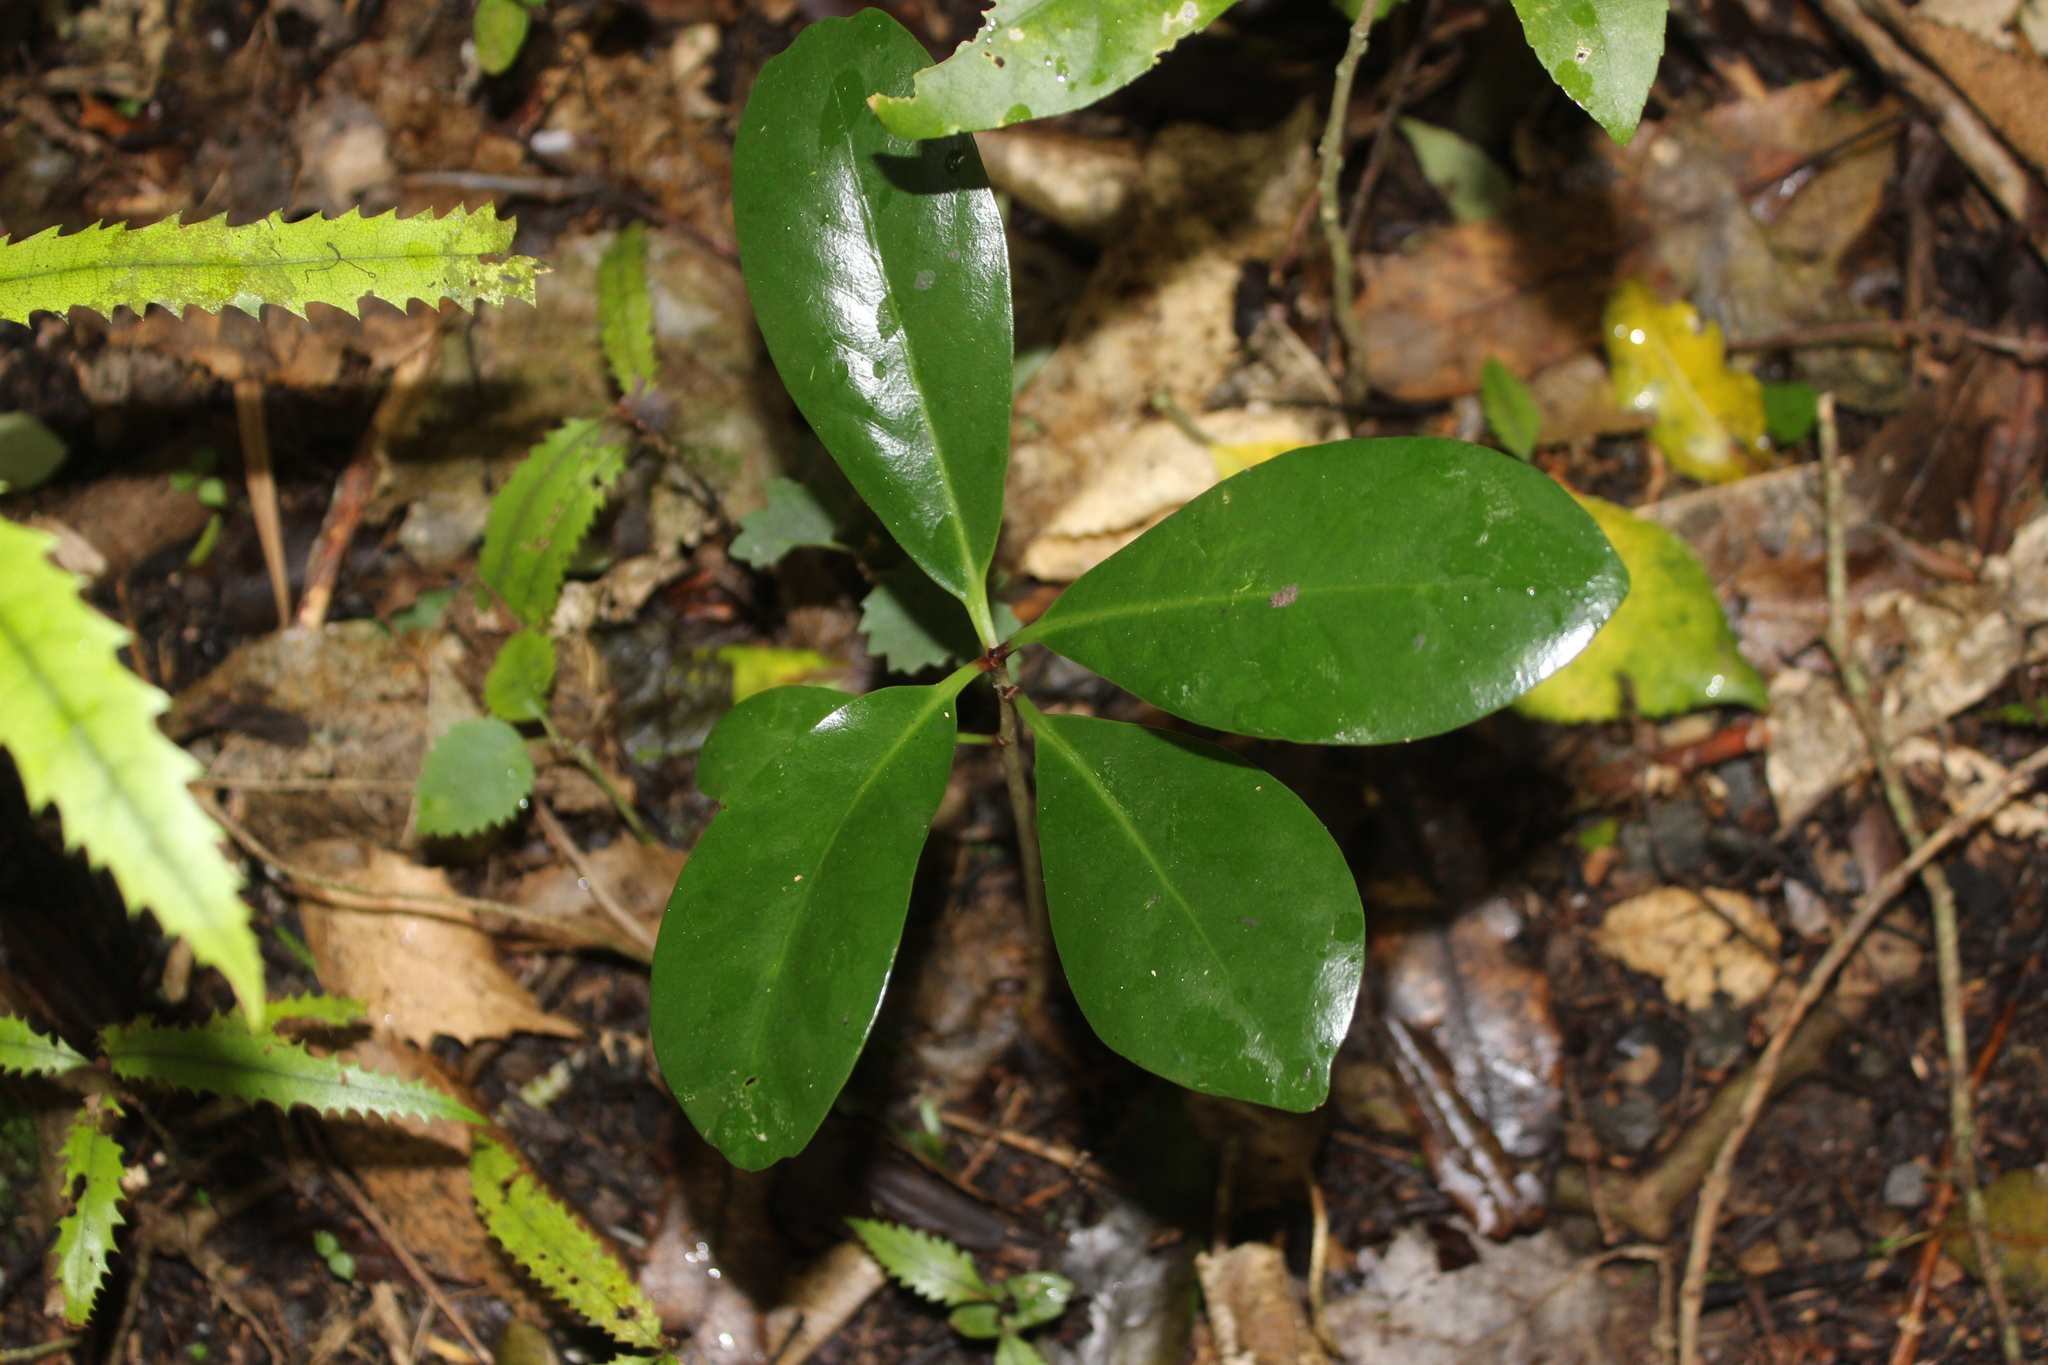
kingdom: Plantae
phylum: Tracheophyta
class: Magnoliopsida
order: Cucurbitales
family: Corynocarpaceae
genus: Corynocarpus
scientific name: Corynocarpus laevigatus
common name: New zealand laurel
